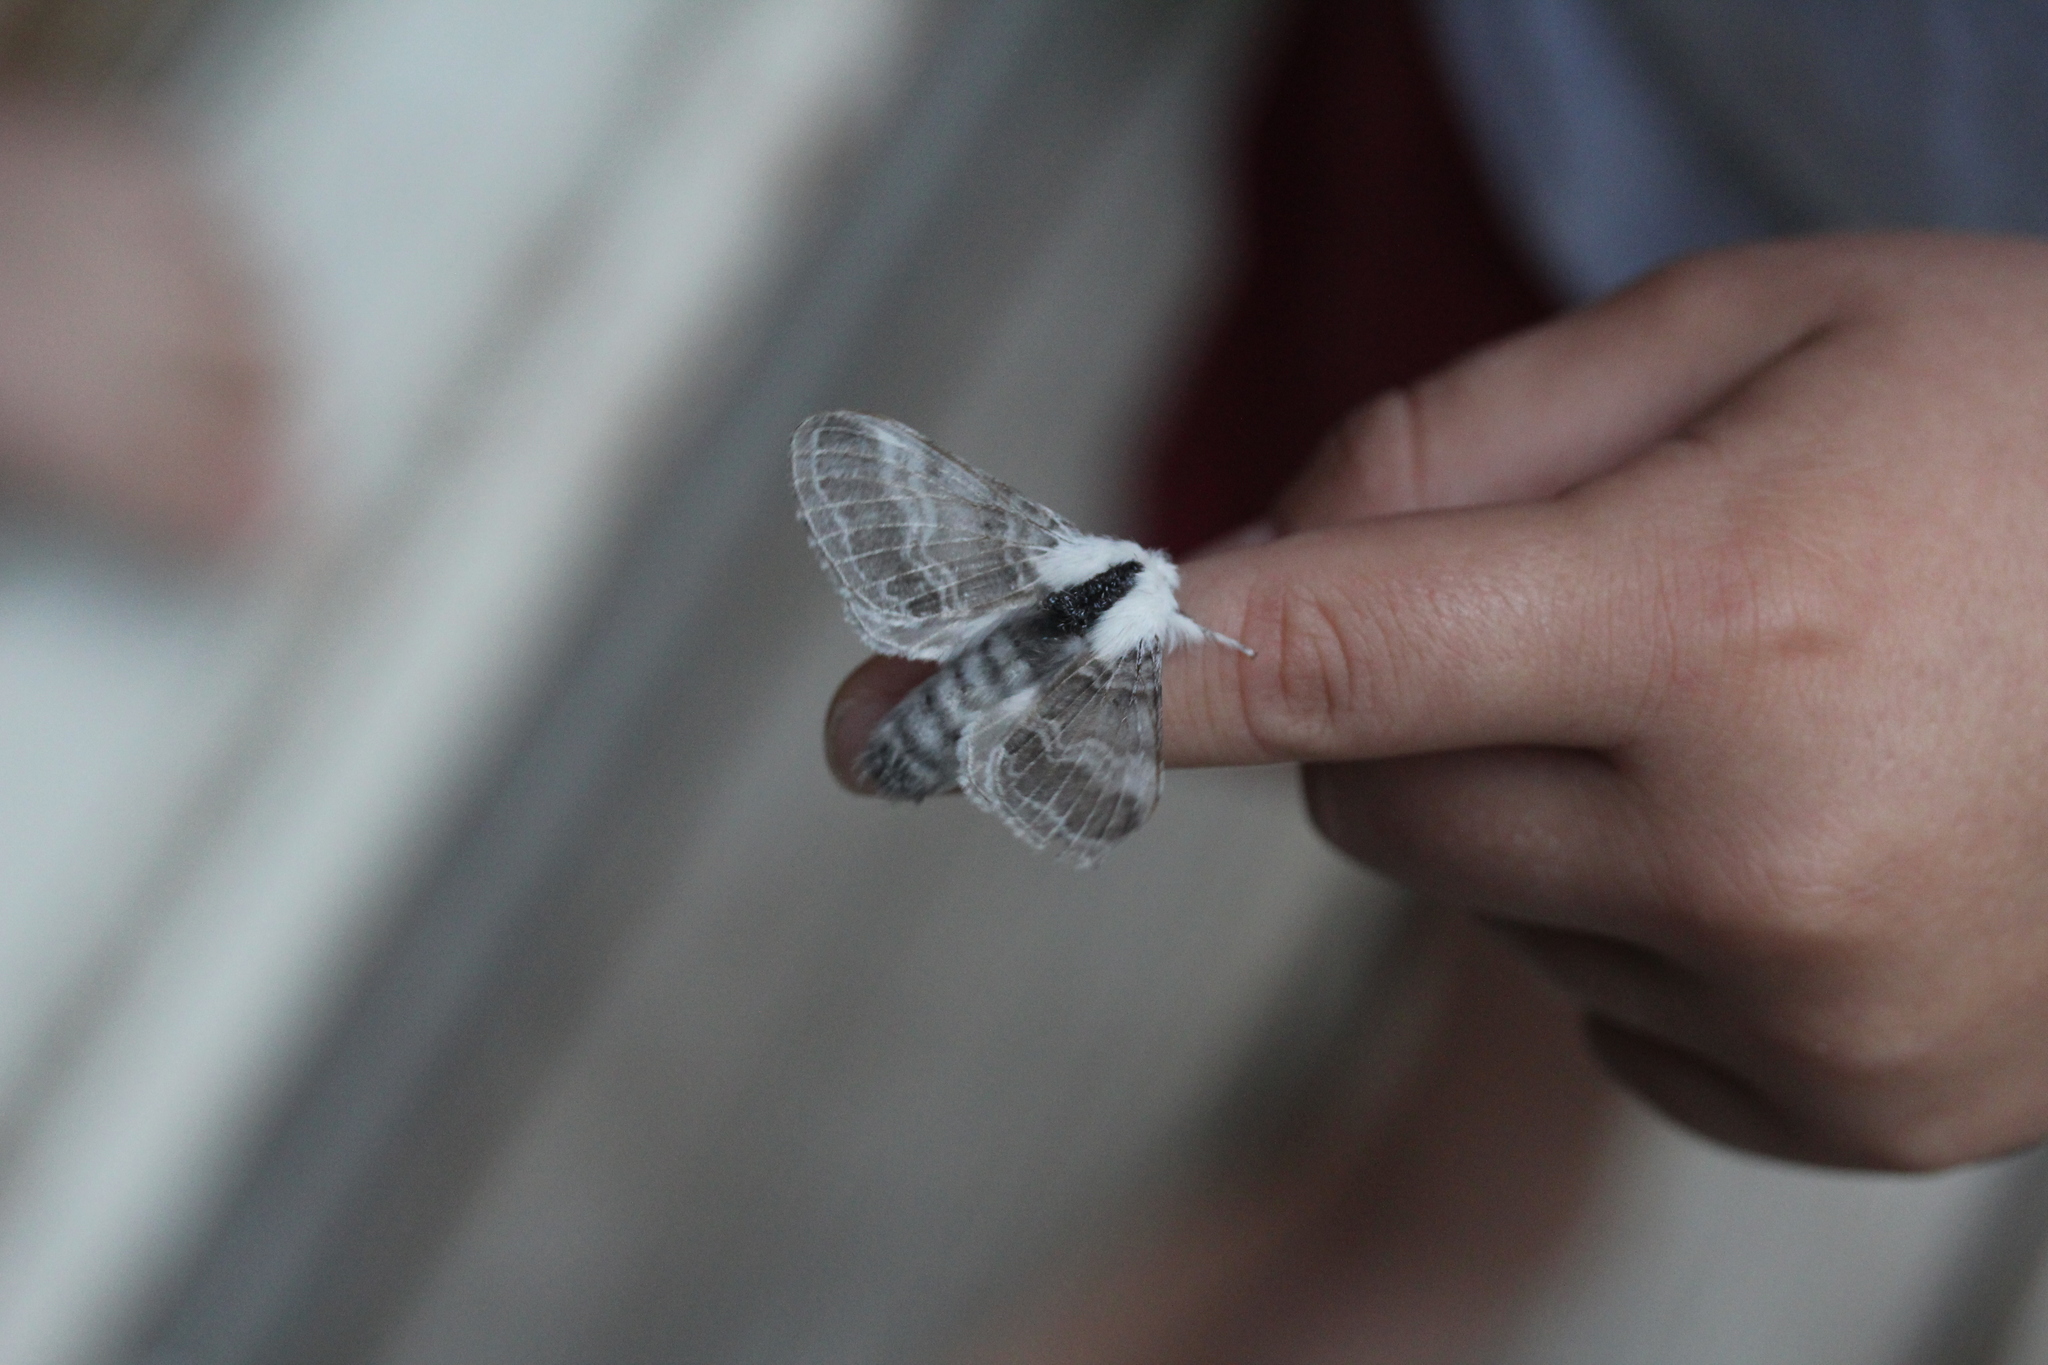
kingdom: Animalia
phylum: Arthropoda
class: Insecta
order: Lepidoptera
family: Lasiocampidae
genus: Tolype
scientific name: Tolype velleda
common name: Large tolype moth
